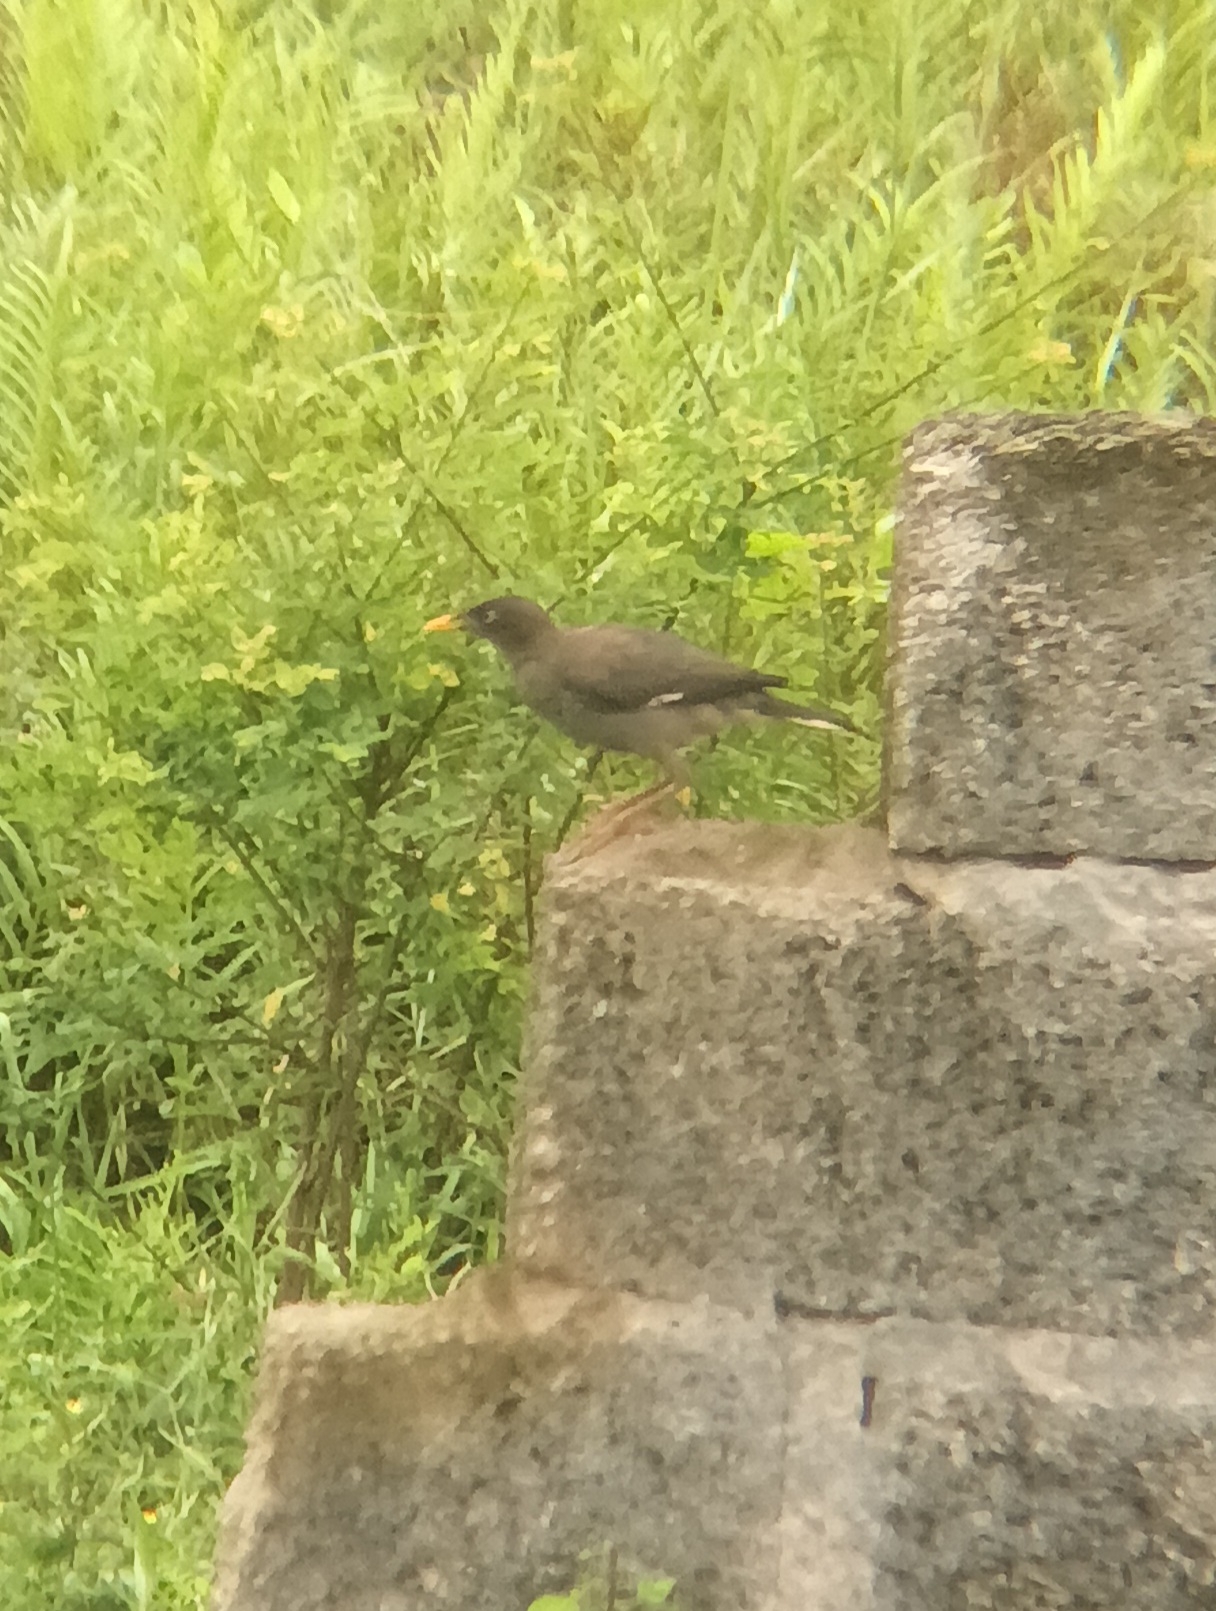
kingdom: Animalia
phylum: Chordata
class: Aves
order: Passeriformes
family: Sturnidae
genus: Acridotheres
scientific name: Acridotheres fuscus
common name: Jungle myna
